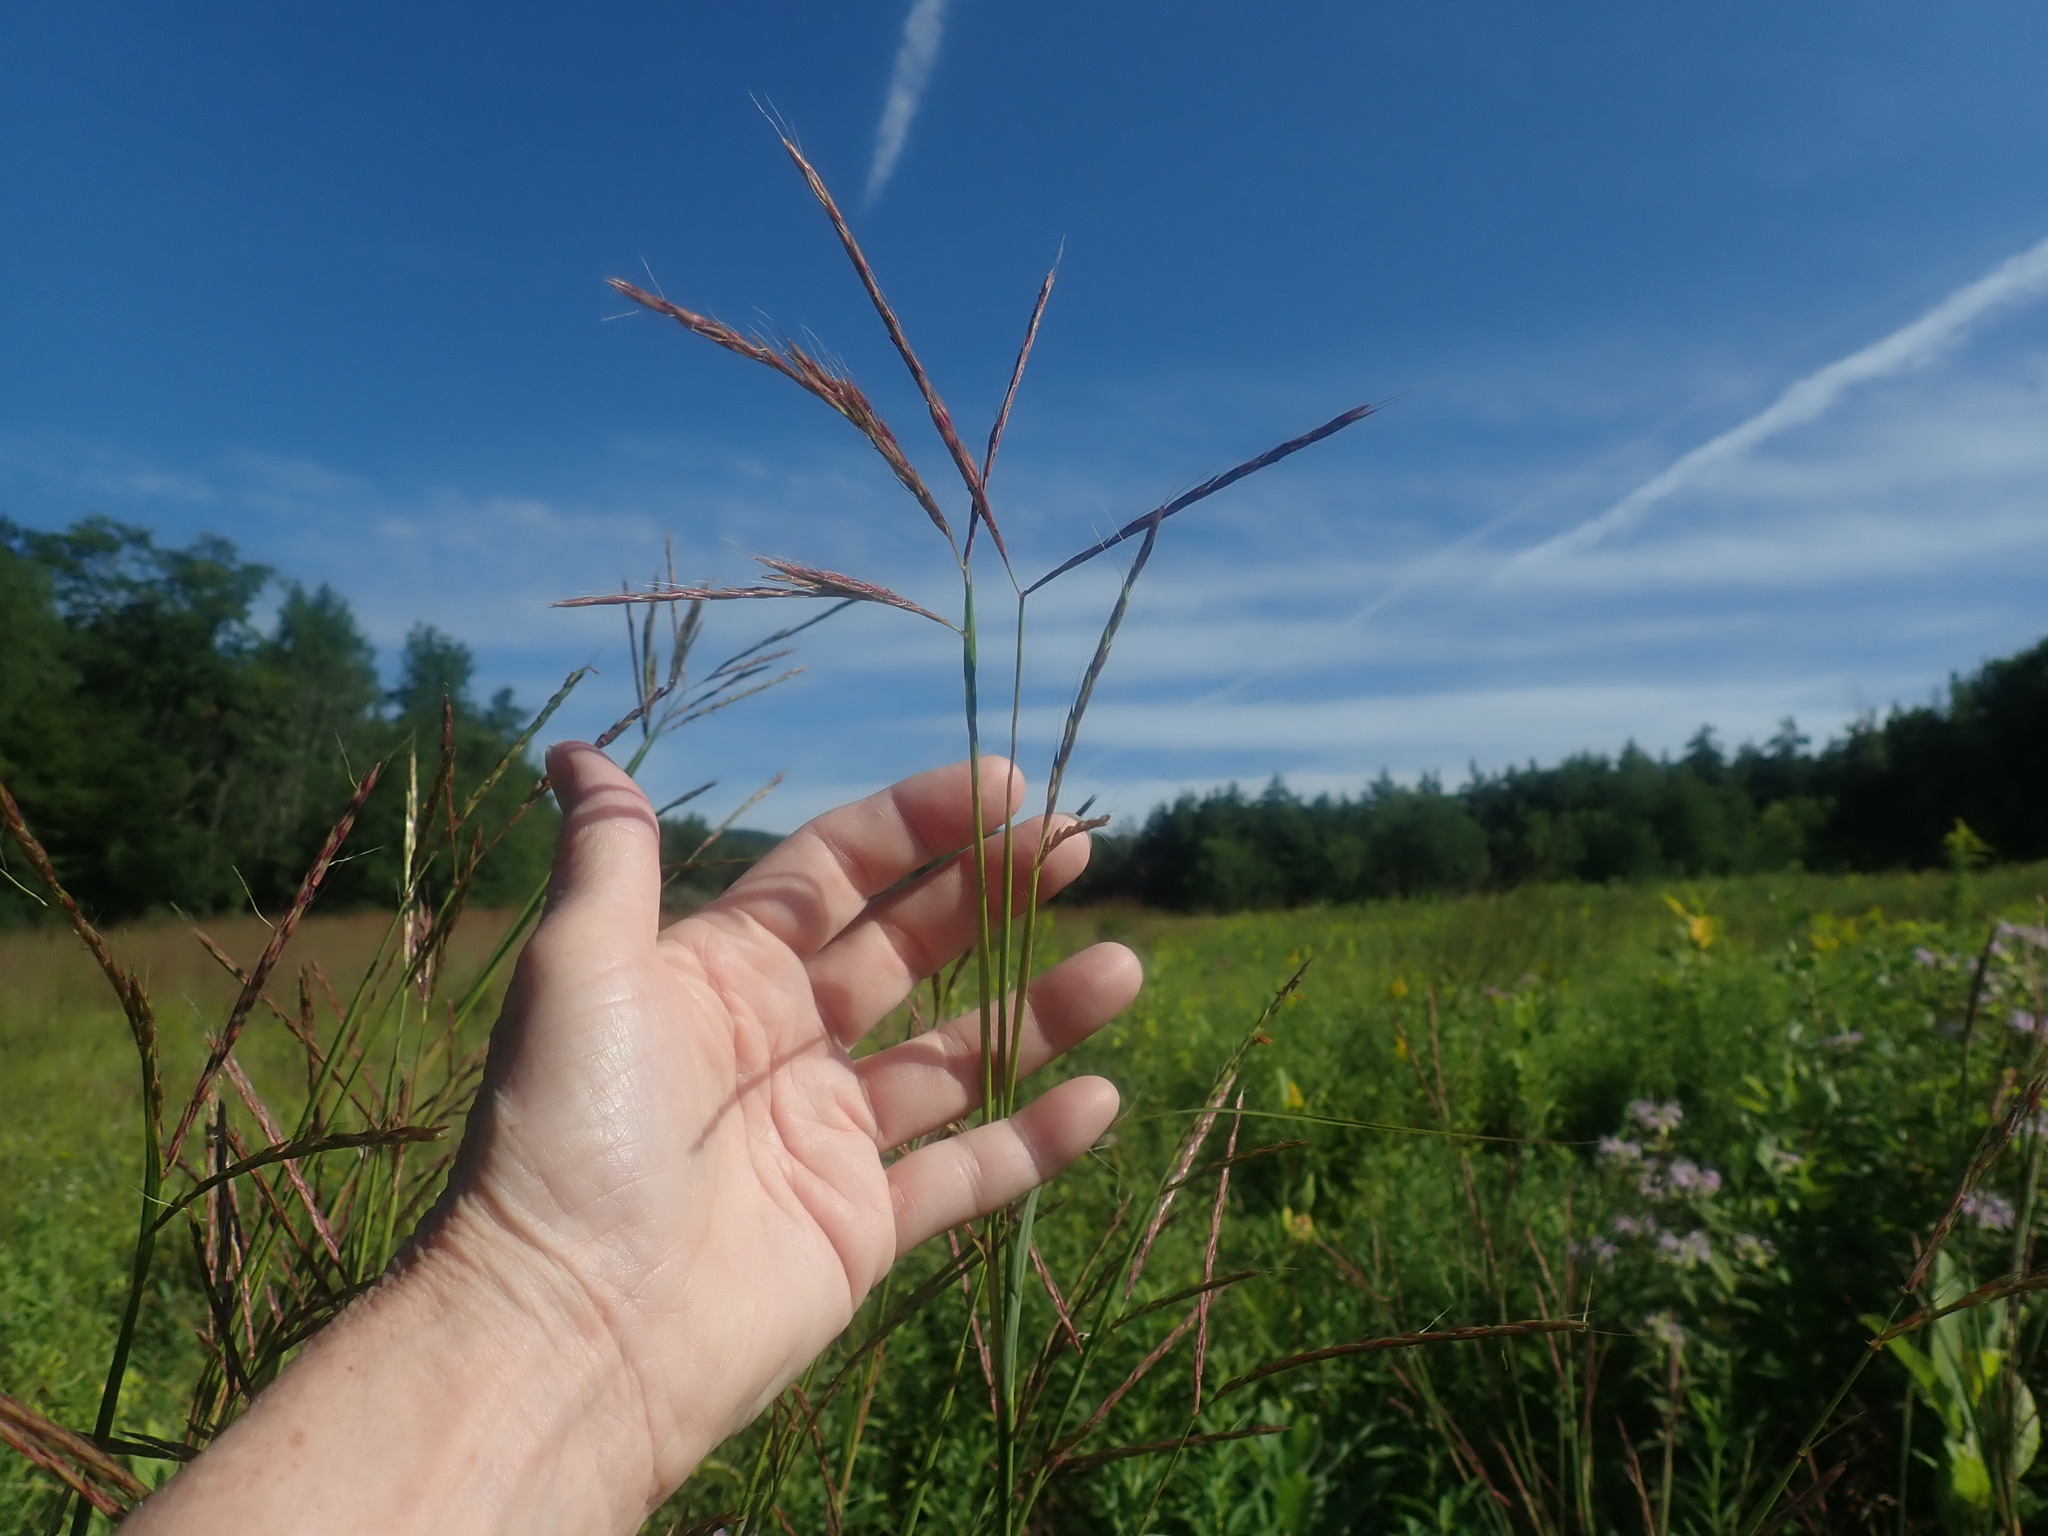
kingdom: Plantae
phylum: Tracheophyta
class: Liliopsida
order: Poales
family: Poaceae
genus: Andropogon
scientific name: Andropogon gerardi
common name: Big bluestem
